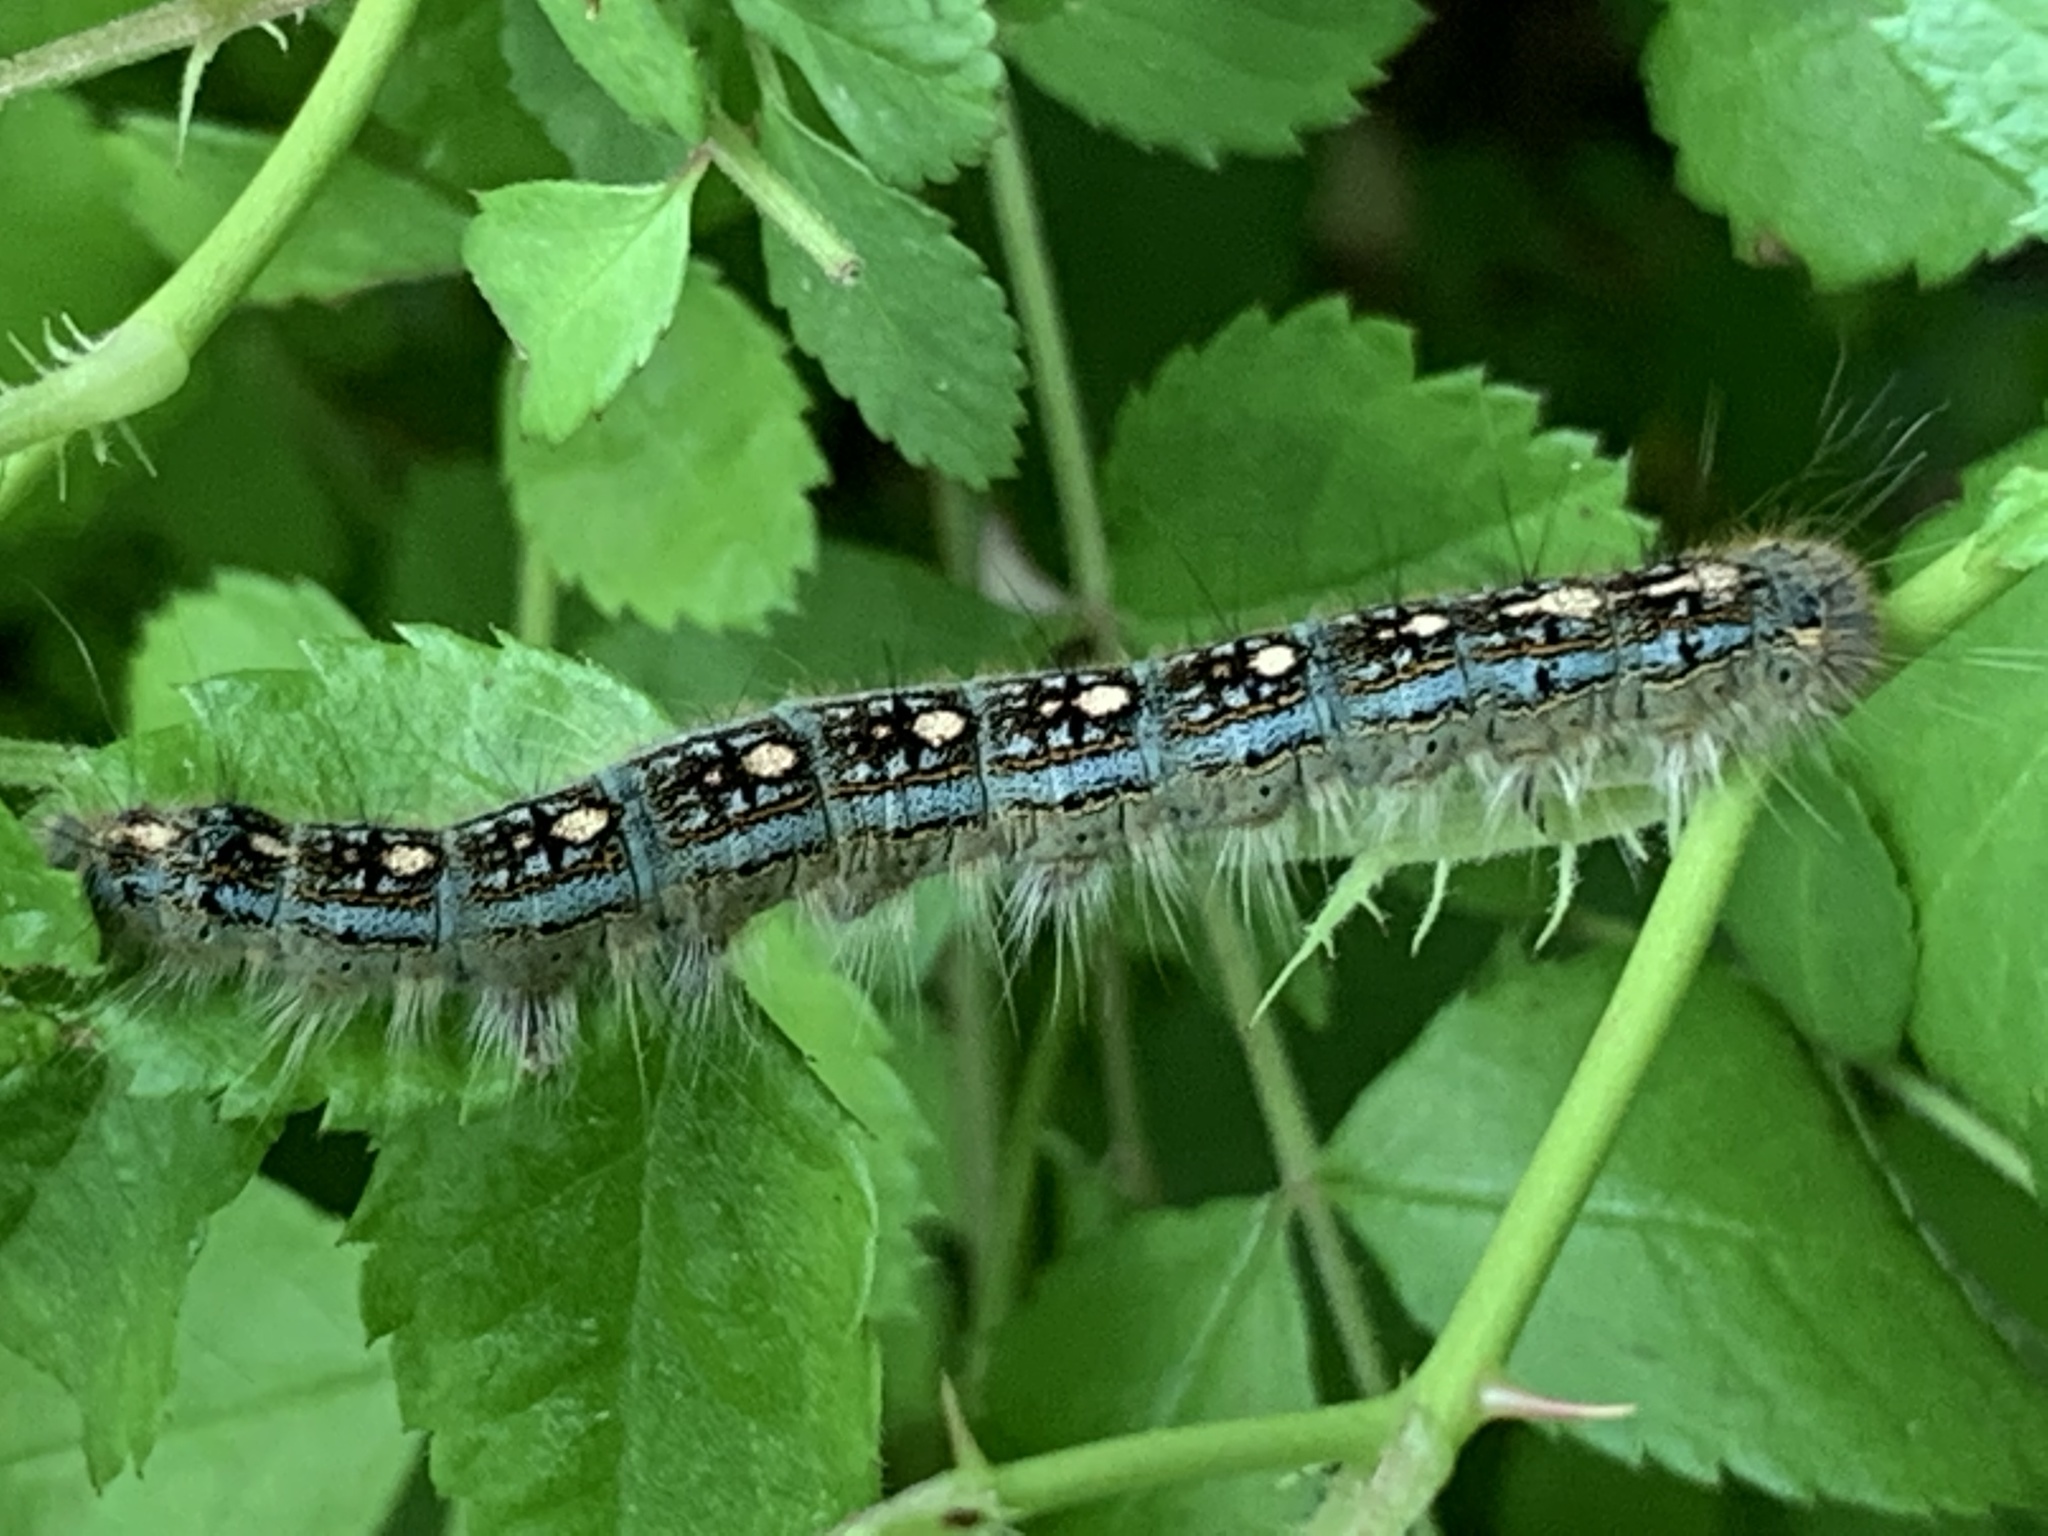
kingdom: Animalia
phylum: Arthropoda
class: Insecta
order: Lepidoptera
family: Lasiocampidae
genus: Malacosoma
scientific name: Malacosoma disstria
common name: Forest tent caterpillar
